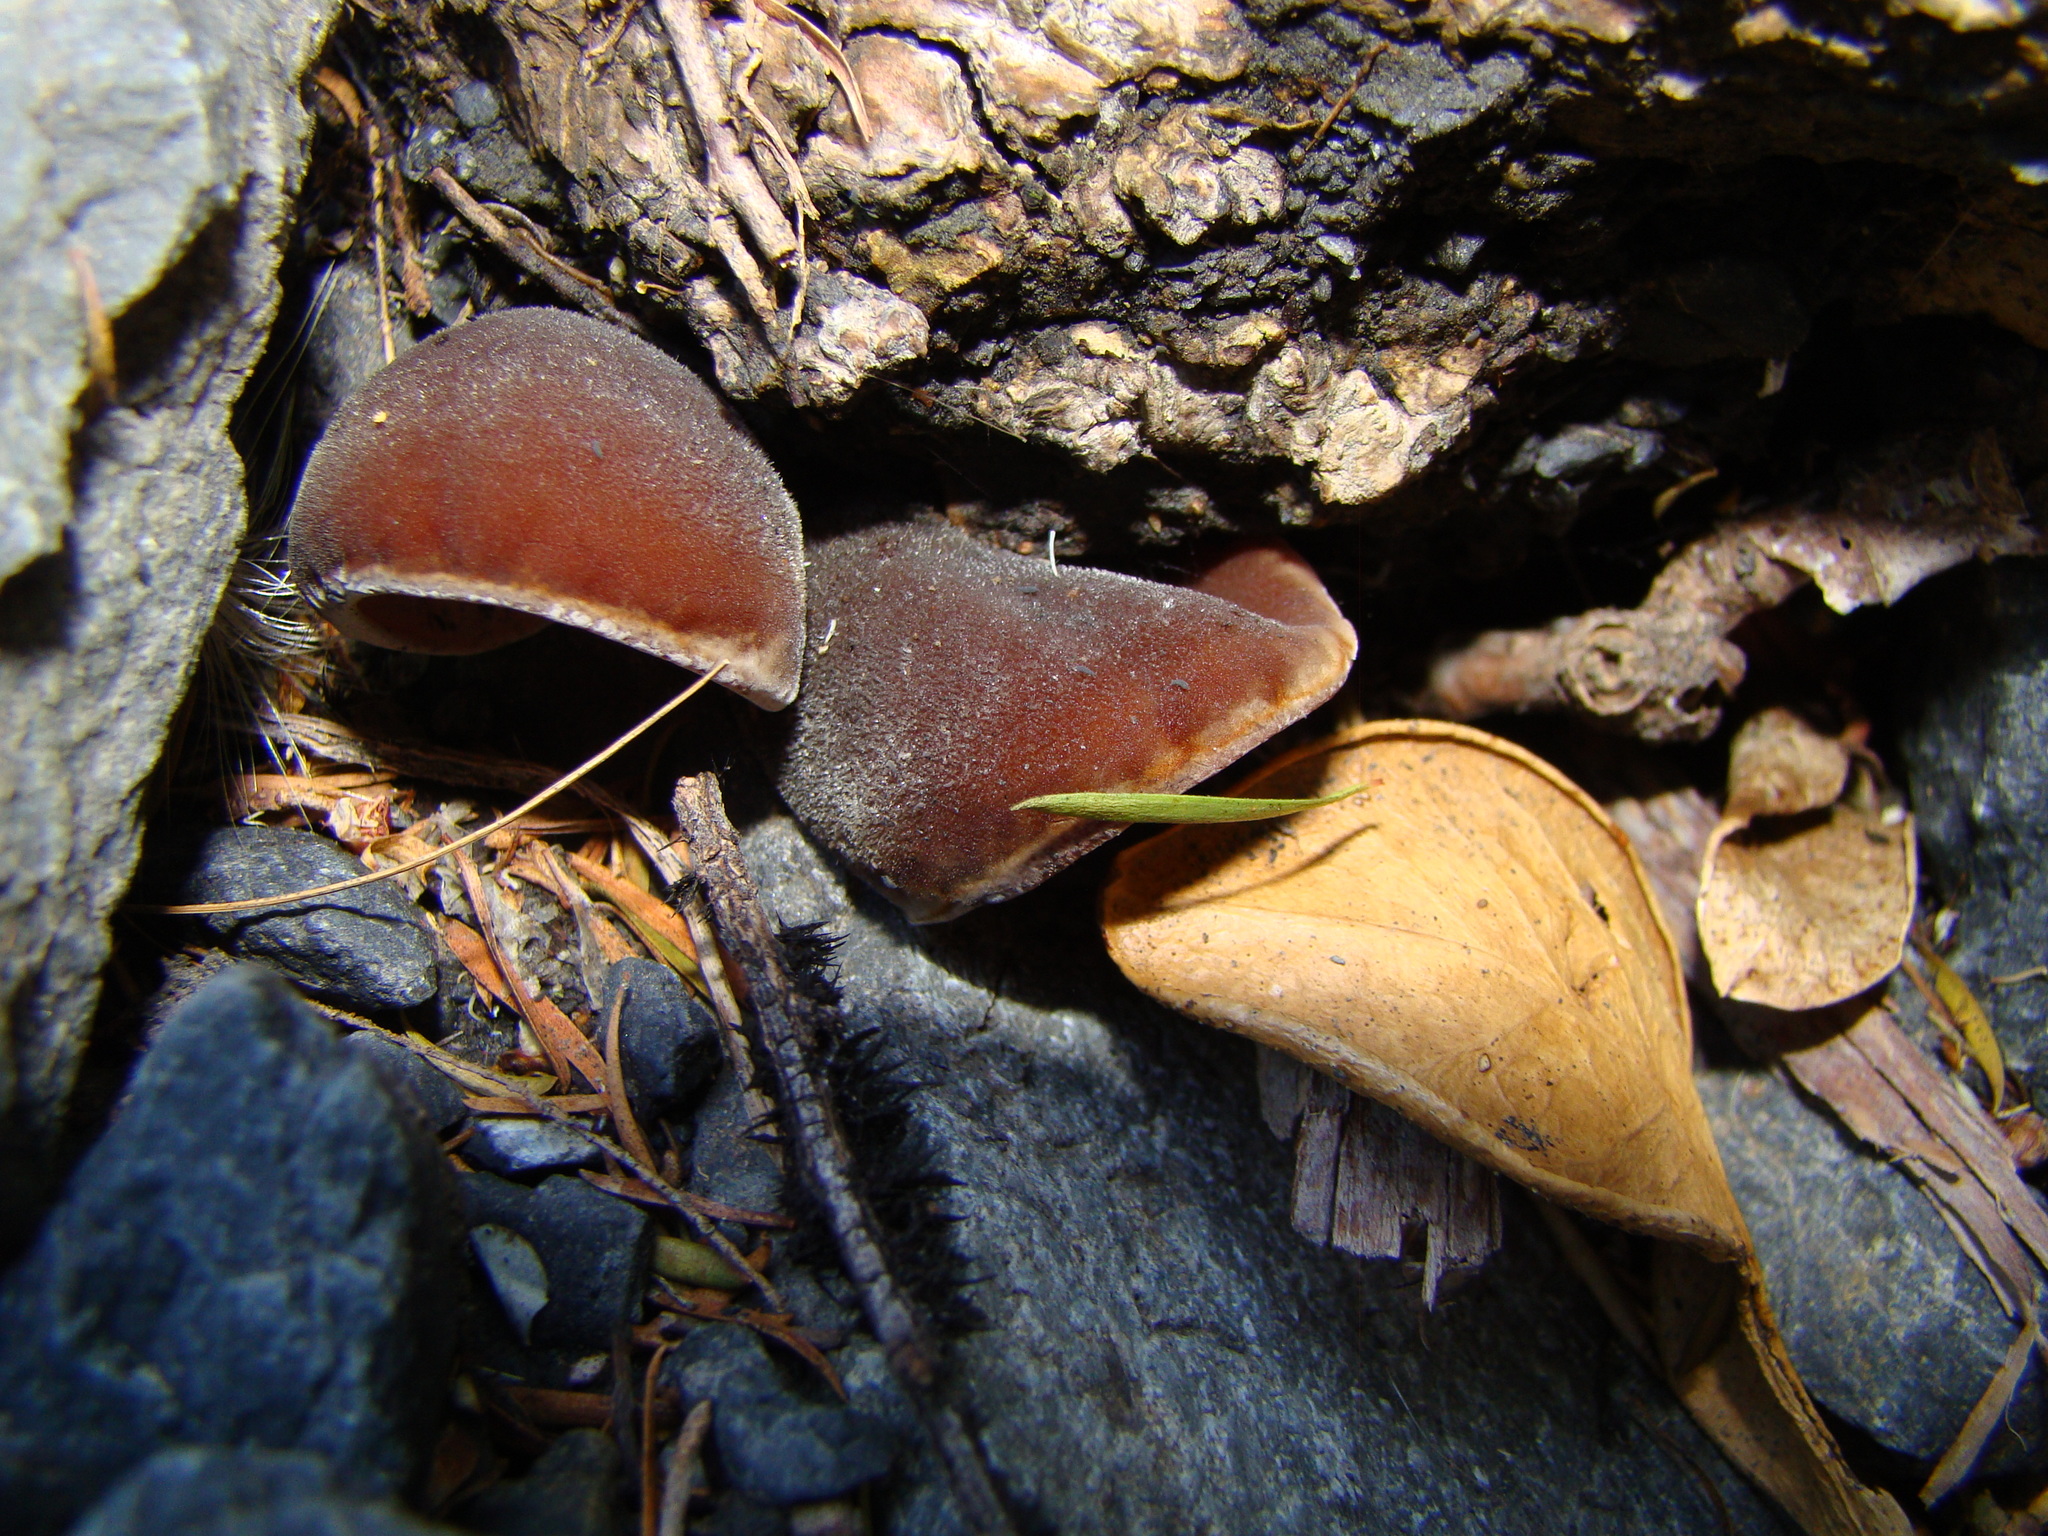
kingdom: Fungi
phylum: Basidiomycota
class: Agaricomycetes
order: Auriculariales
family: Auriculariaceae
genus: Auricularia
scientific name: Auricularia cornea
